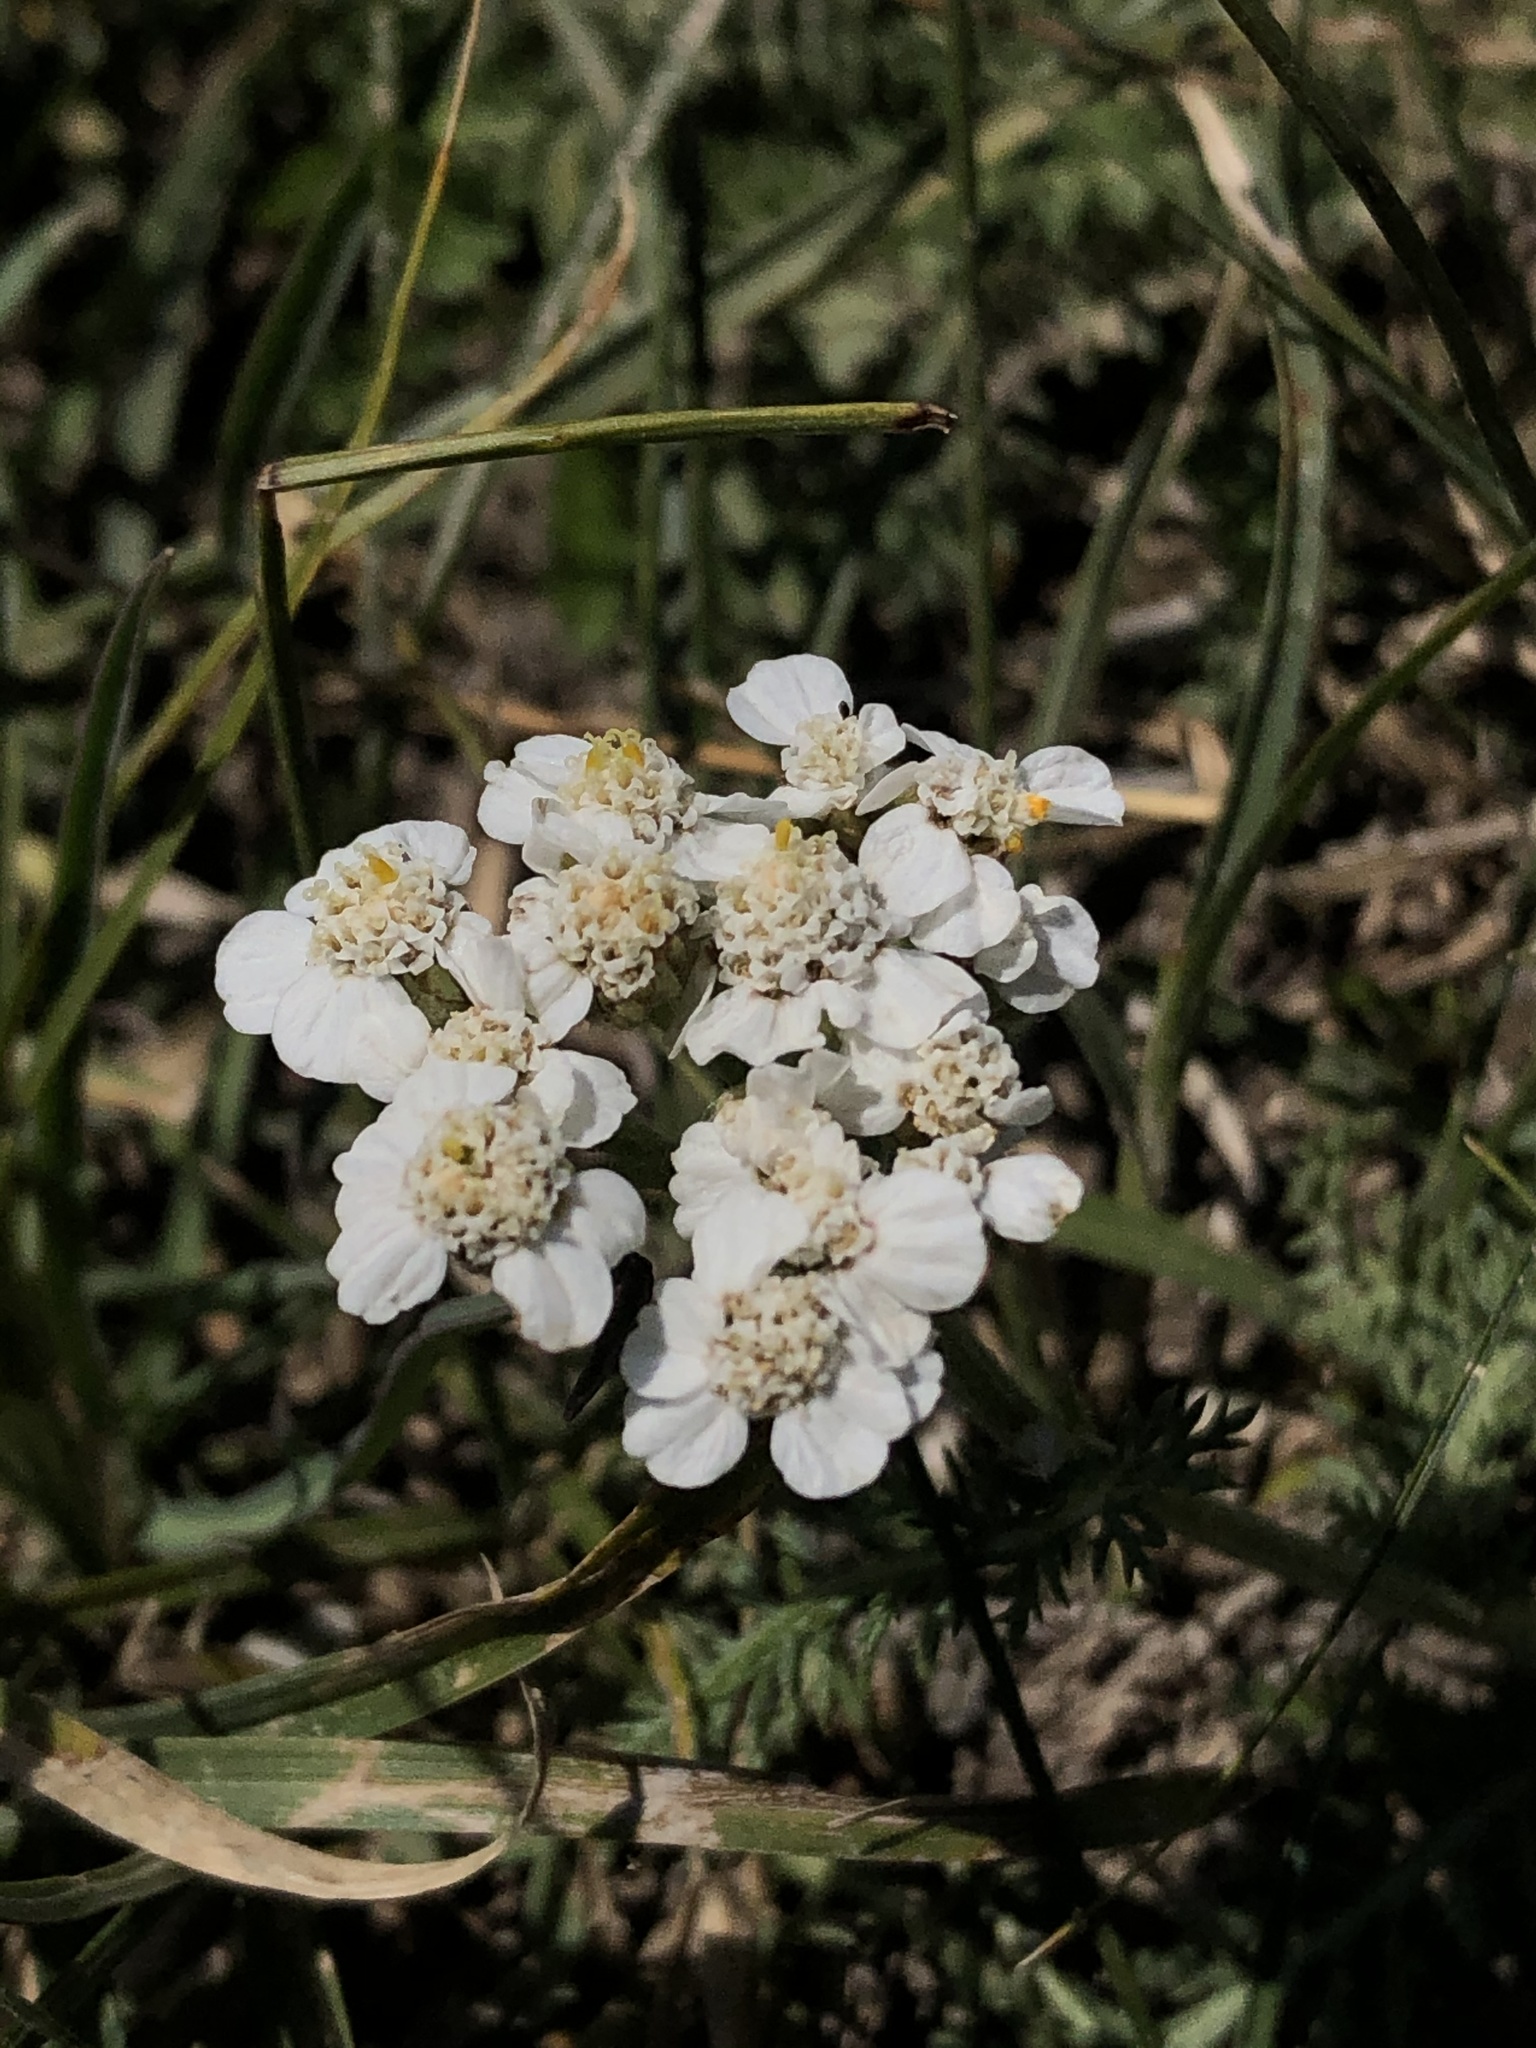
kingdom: Plantae
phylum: Tracheophyta
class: Magnoliopsida
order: Asterales
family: Asteraceae
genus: Achillea
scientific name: Achillea millefolium
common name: Yarrow
